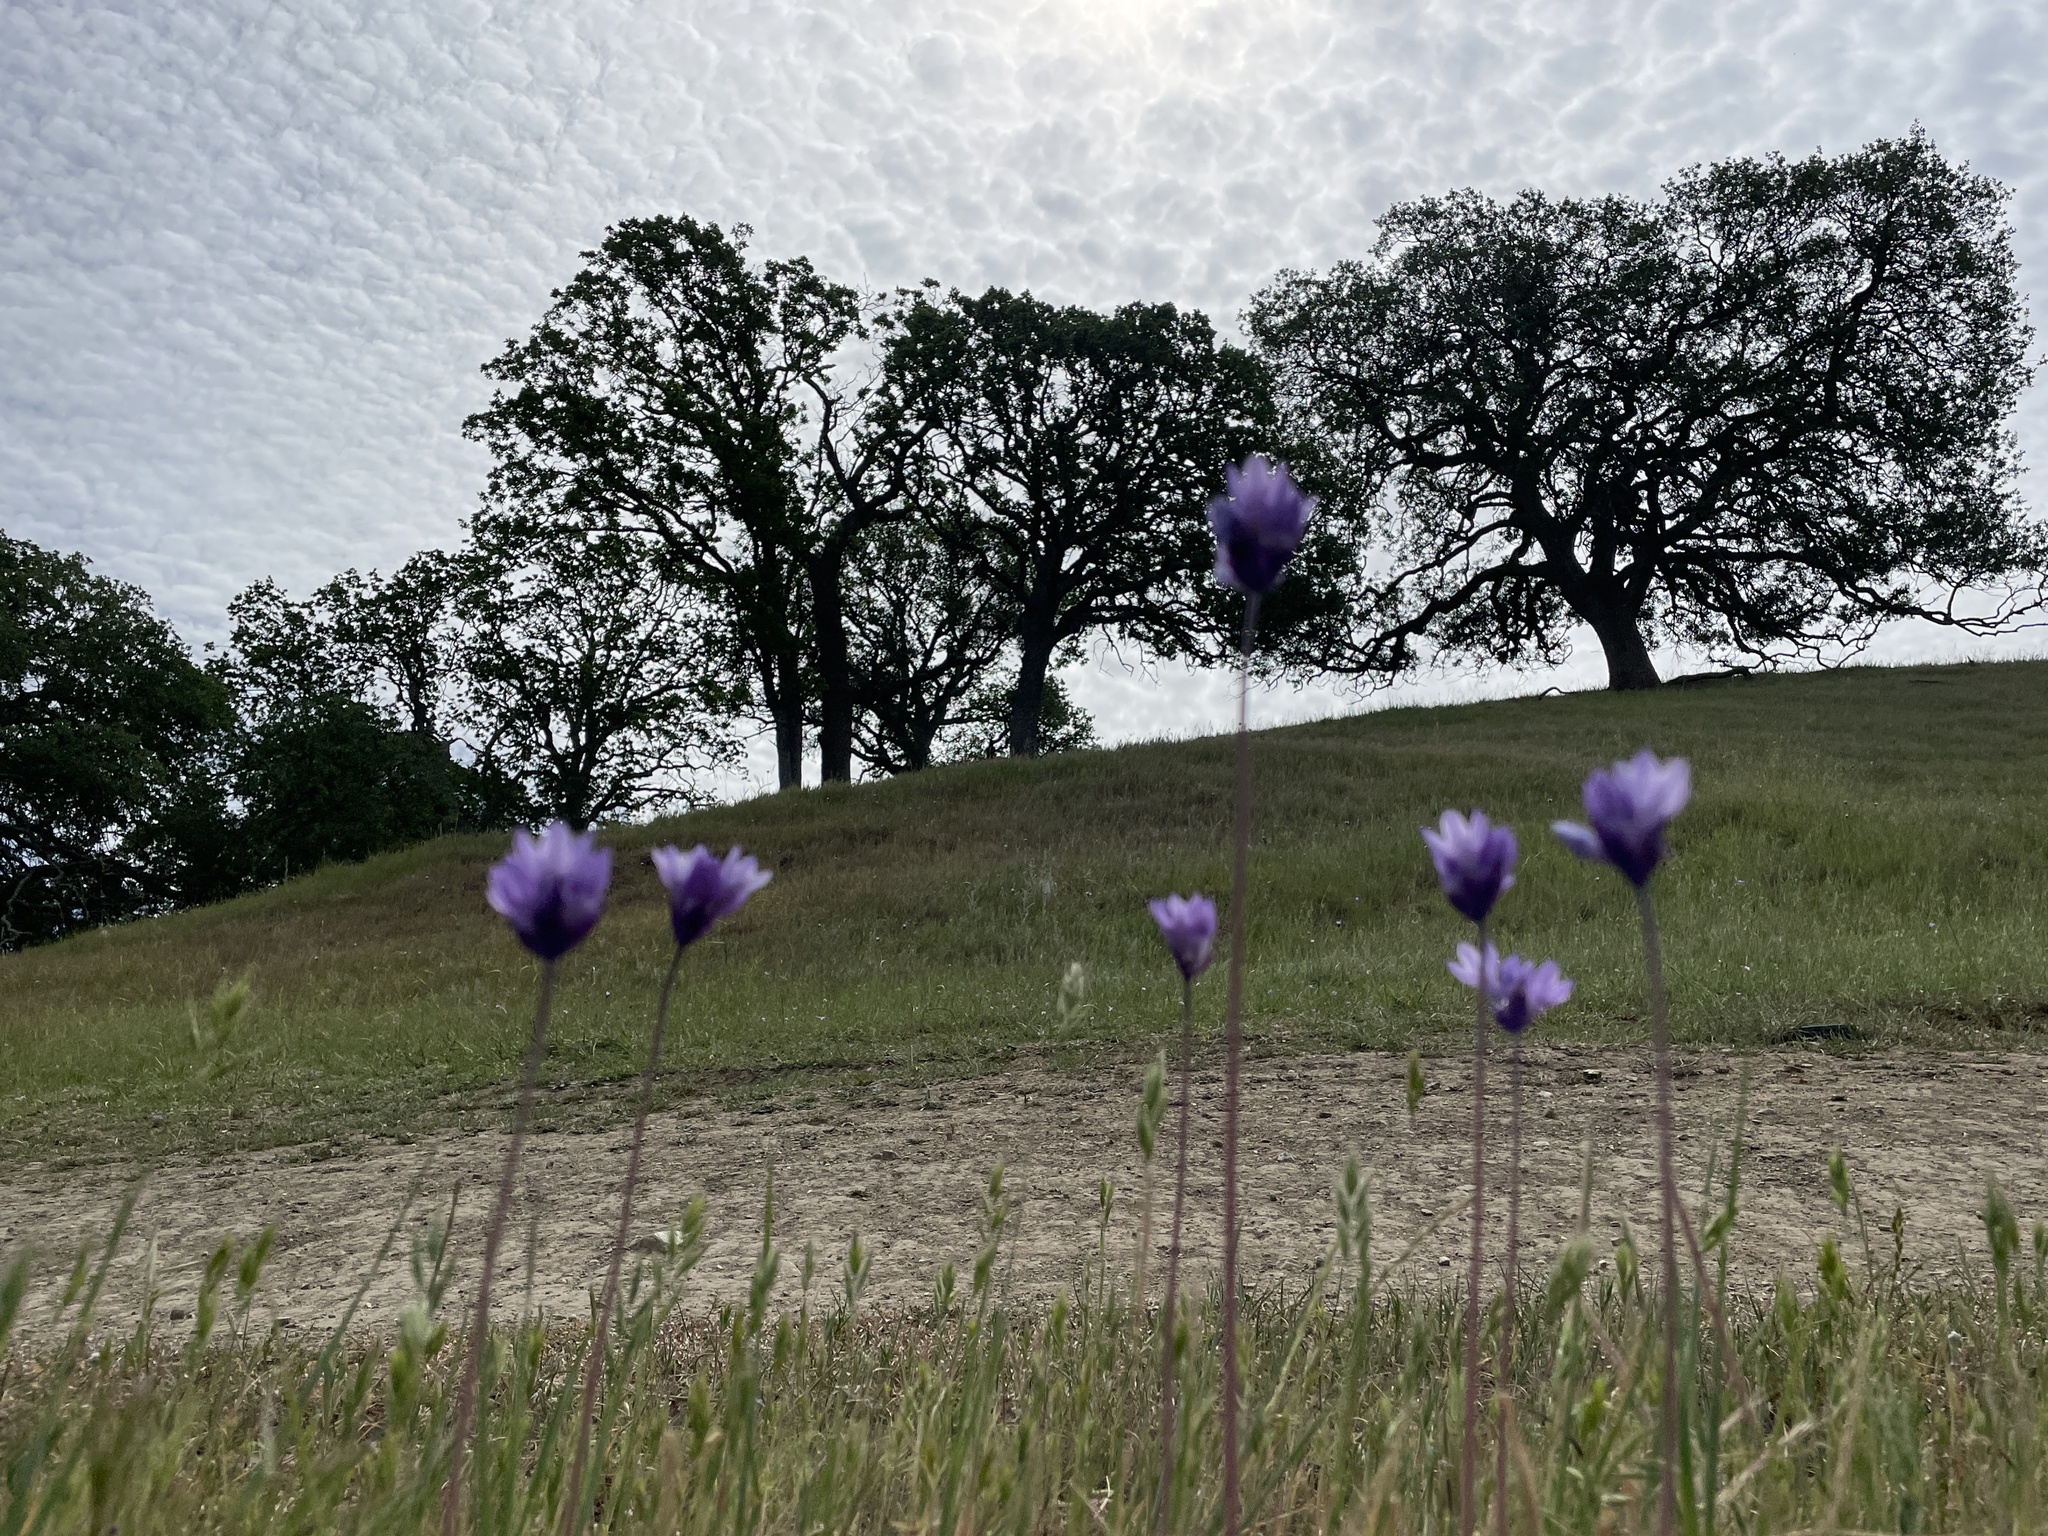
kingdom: Plantae
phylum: Tracheophyta
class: Liliopsida
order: Asparagales
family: Asparagaceae
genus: Dipterostemon
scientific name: Dipterostemon capitatus
